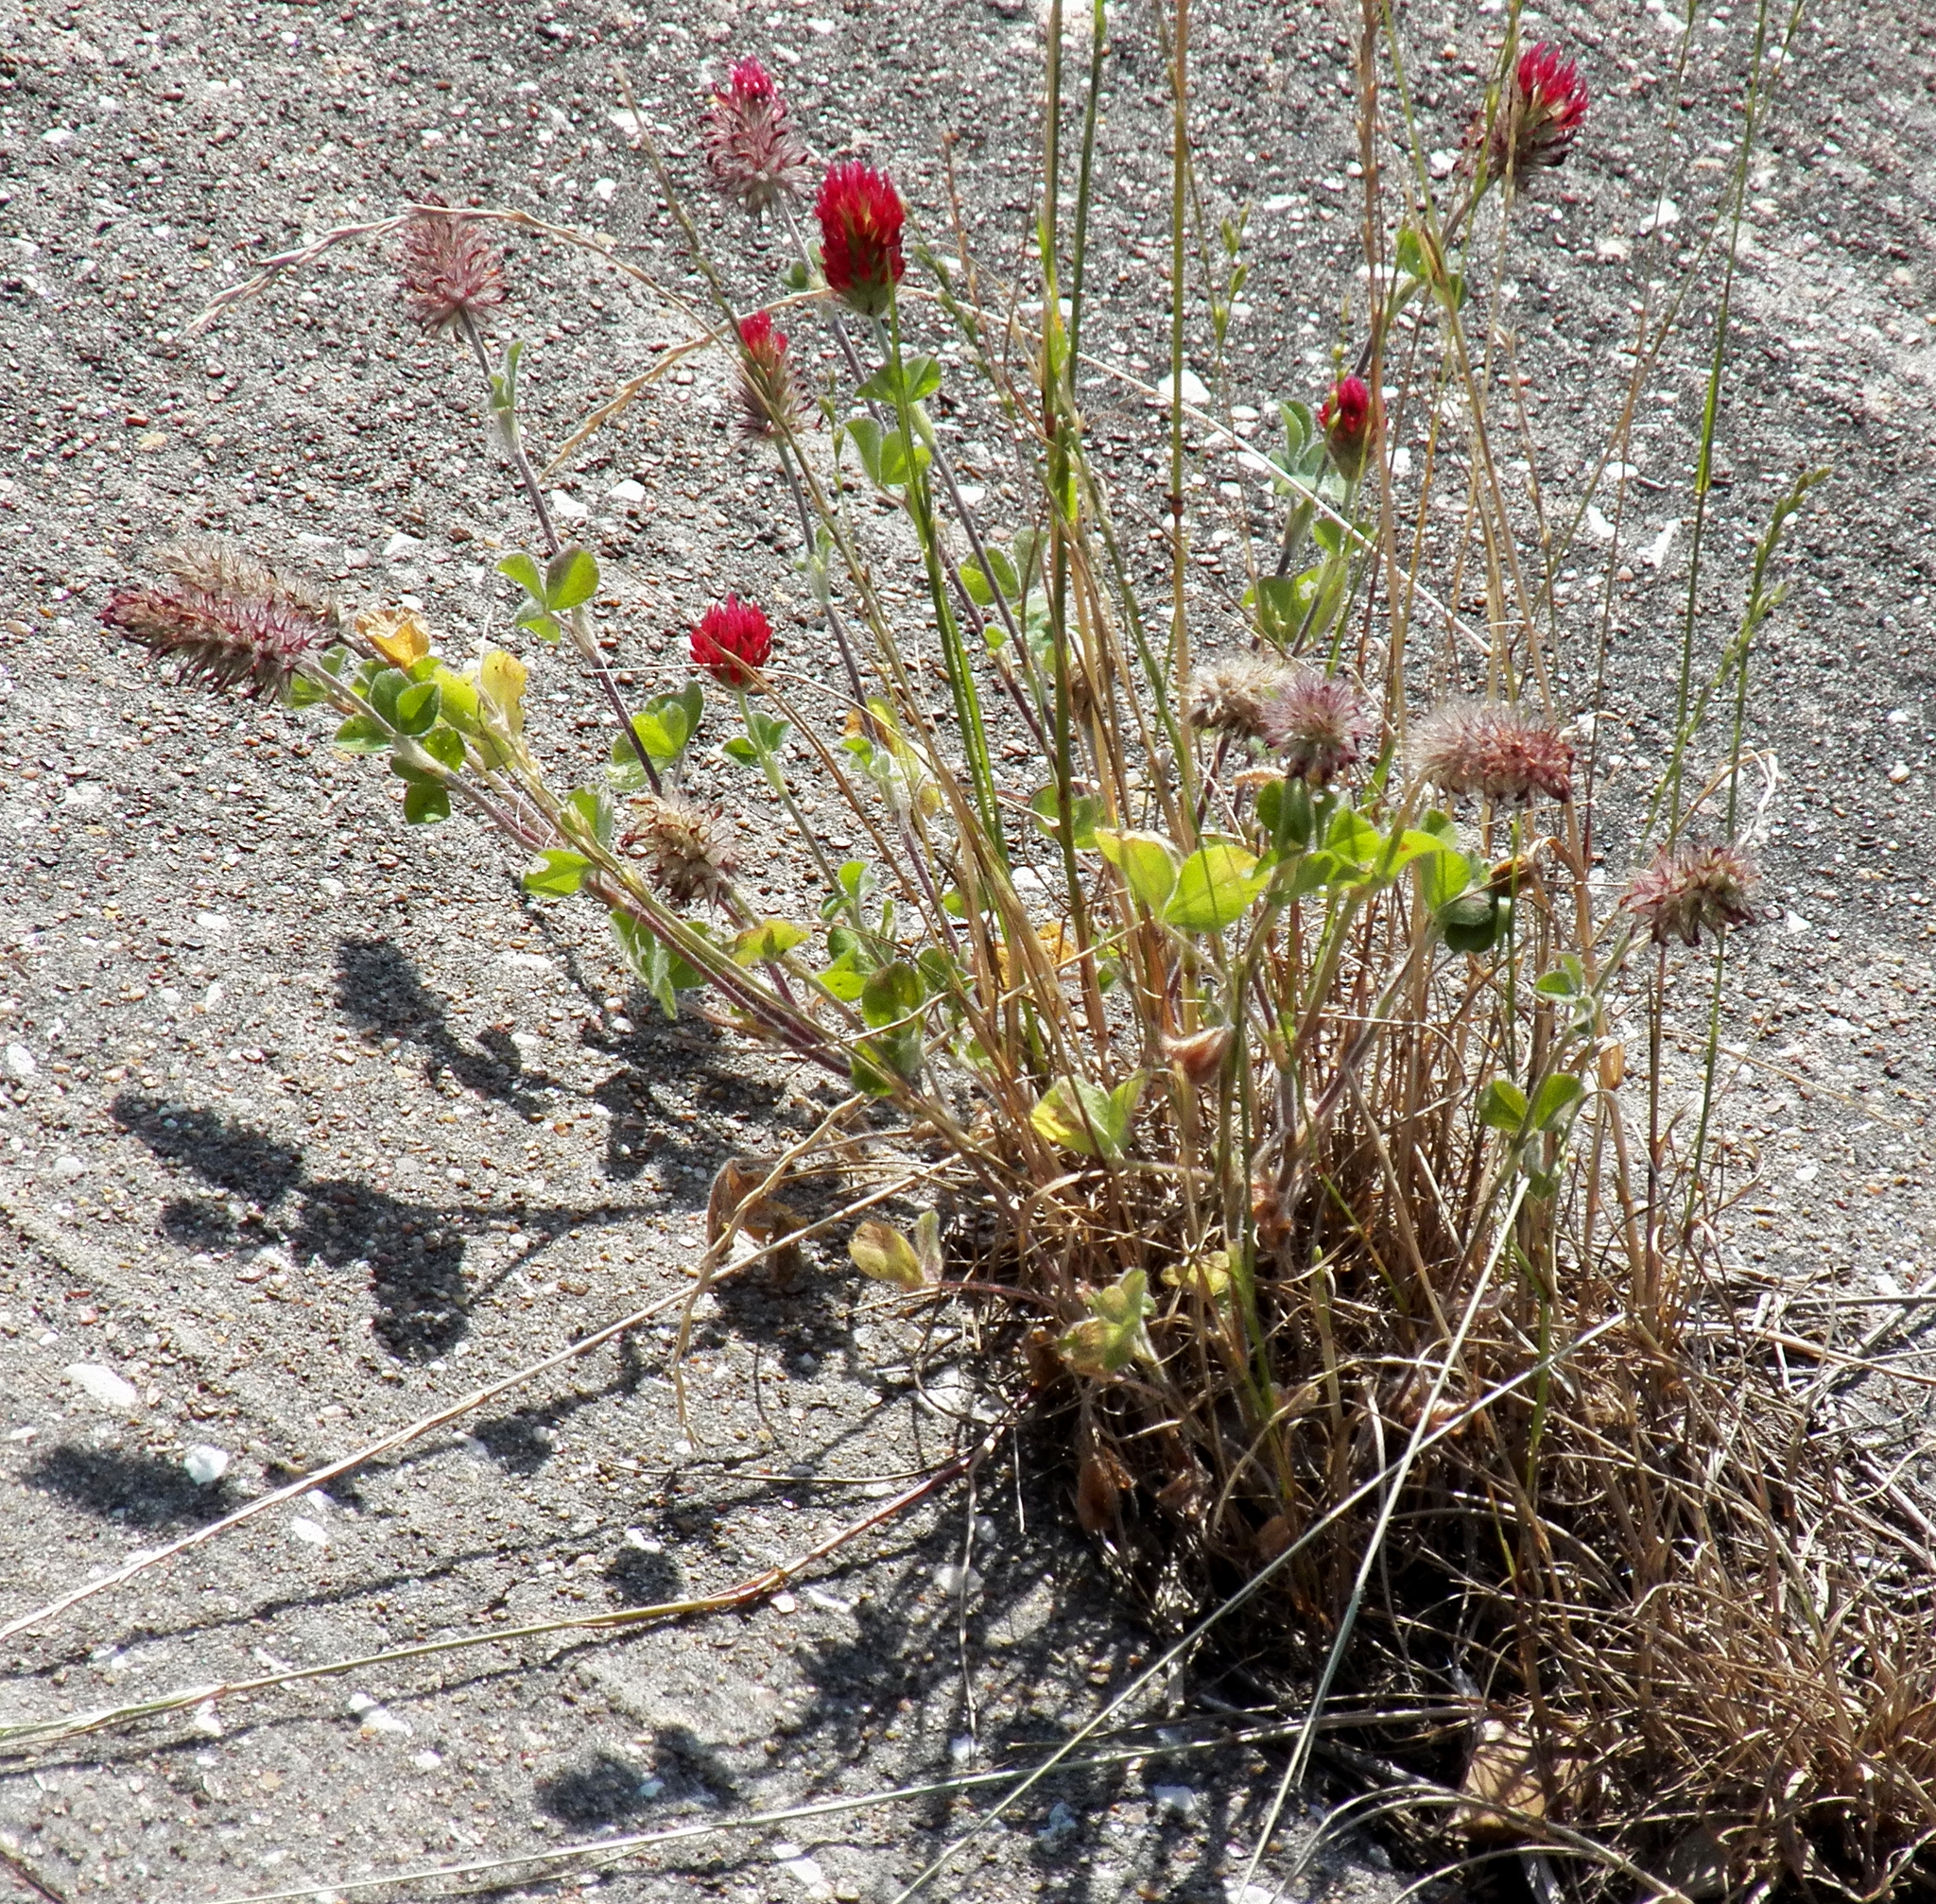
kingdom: Plantae
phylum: Tracheophyta
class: Magnoliopsida
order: Fabales
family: Fabaceae
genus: Trifolium
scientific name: Trifolium incarnatum
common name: Crimson clover
